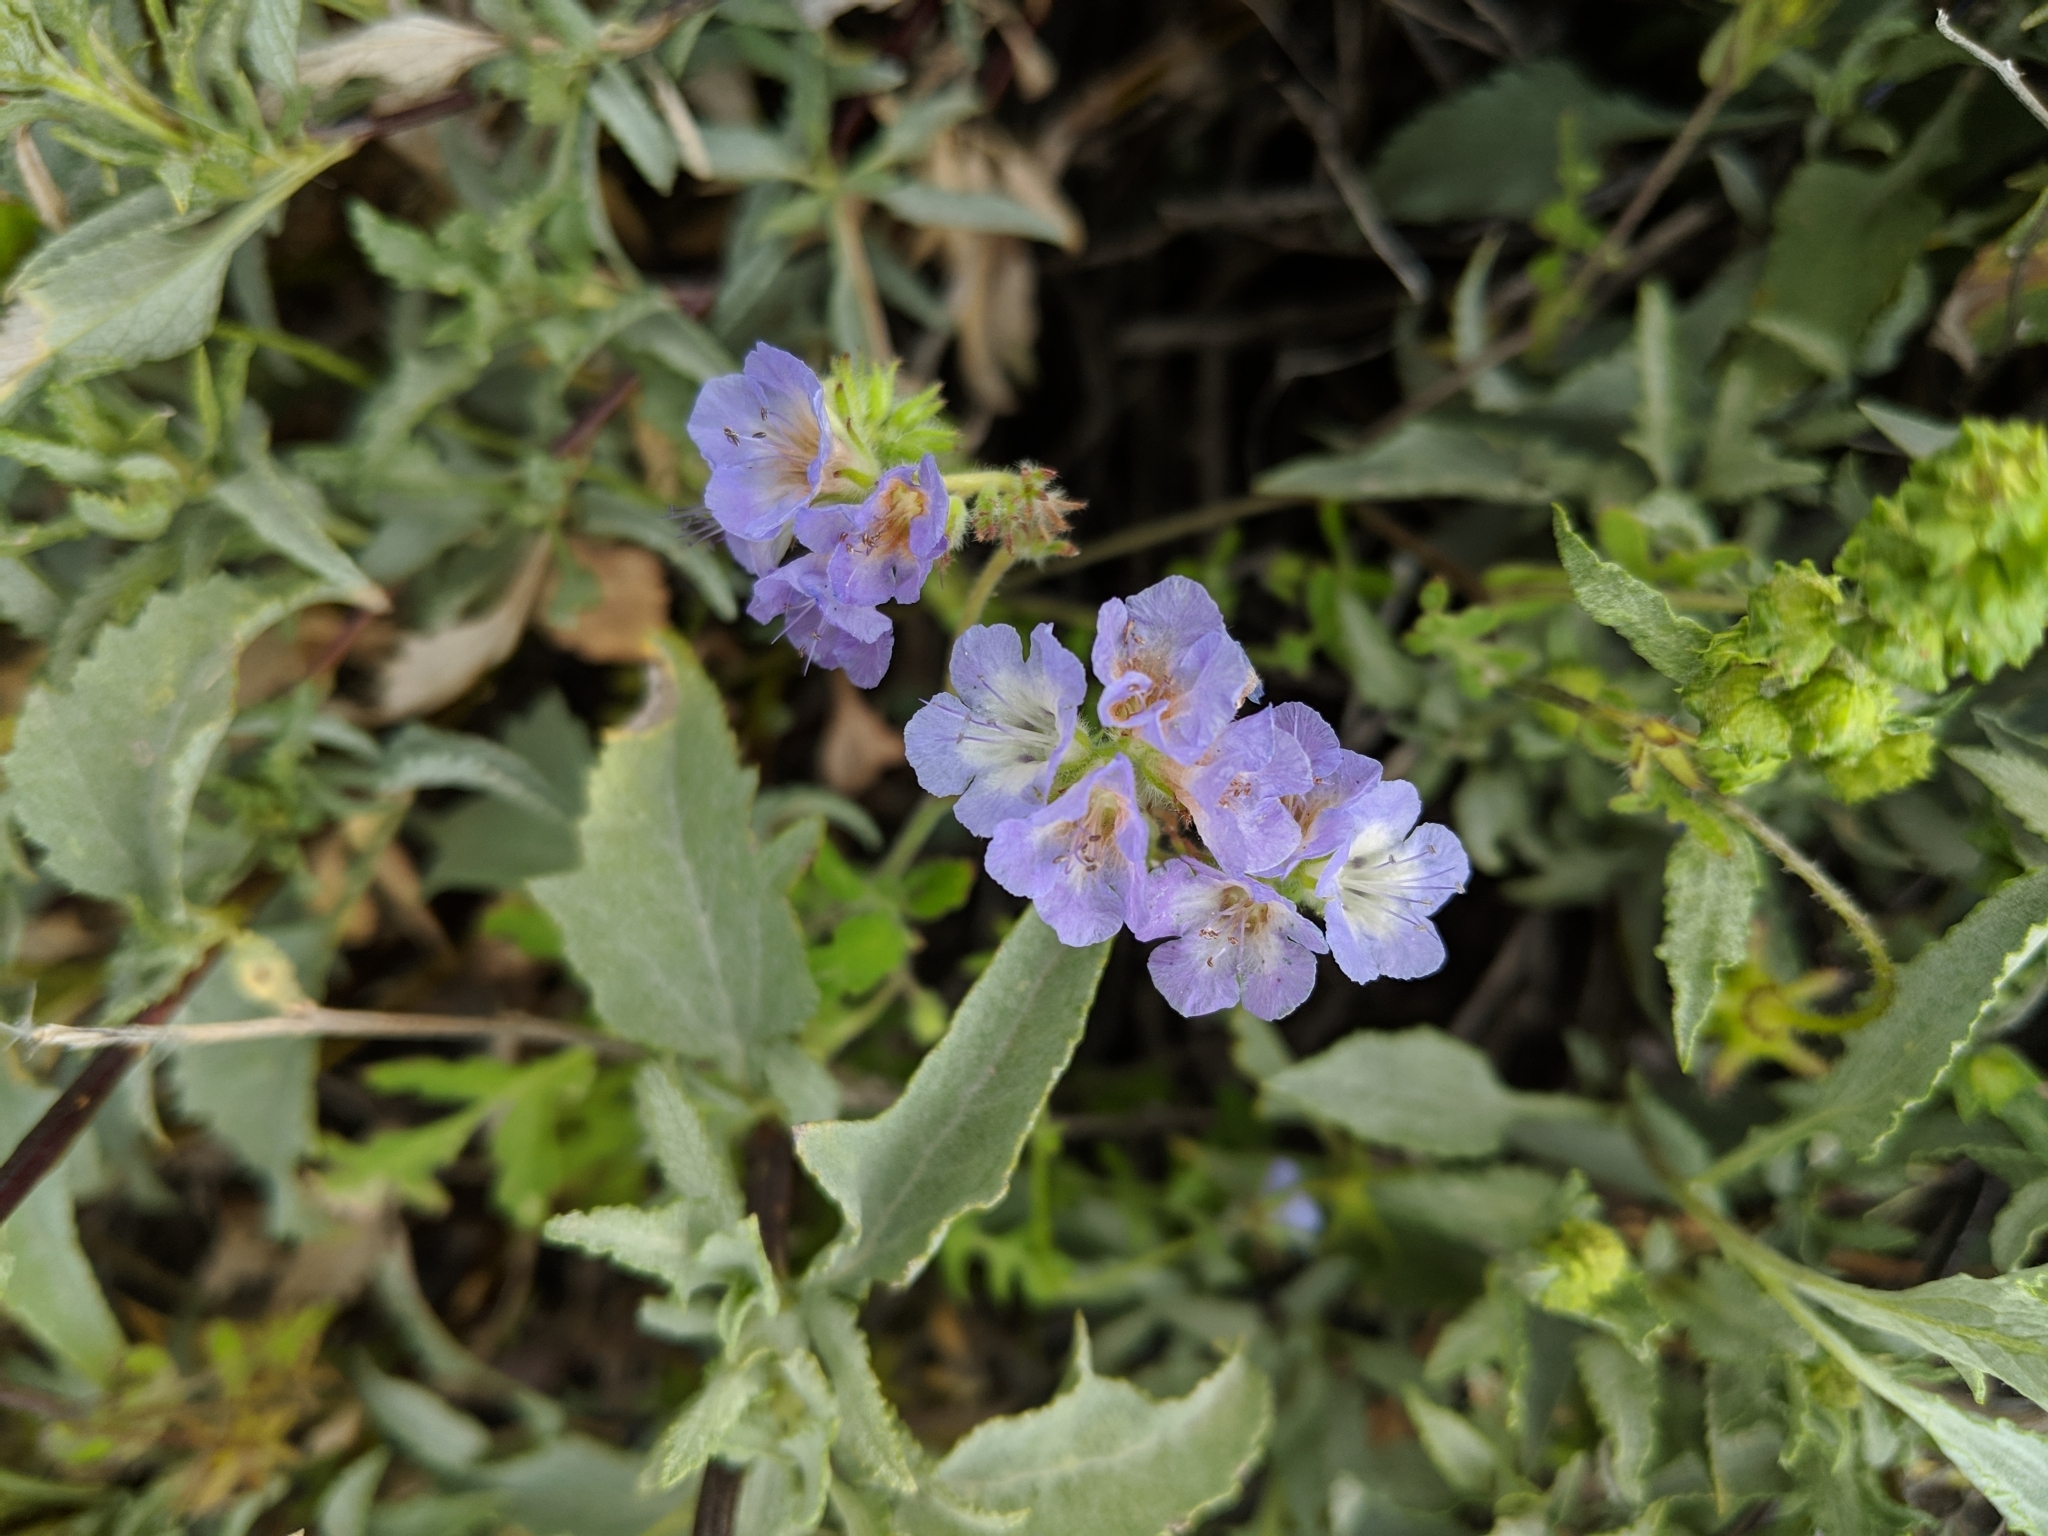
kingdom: Plantae
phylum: Tracheophyta
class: Magnoliopsida
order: Boraginales
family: Hydrophyllaceae
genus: Phacelia
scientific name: Phacelia distans
